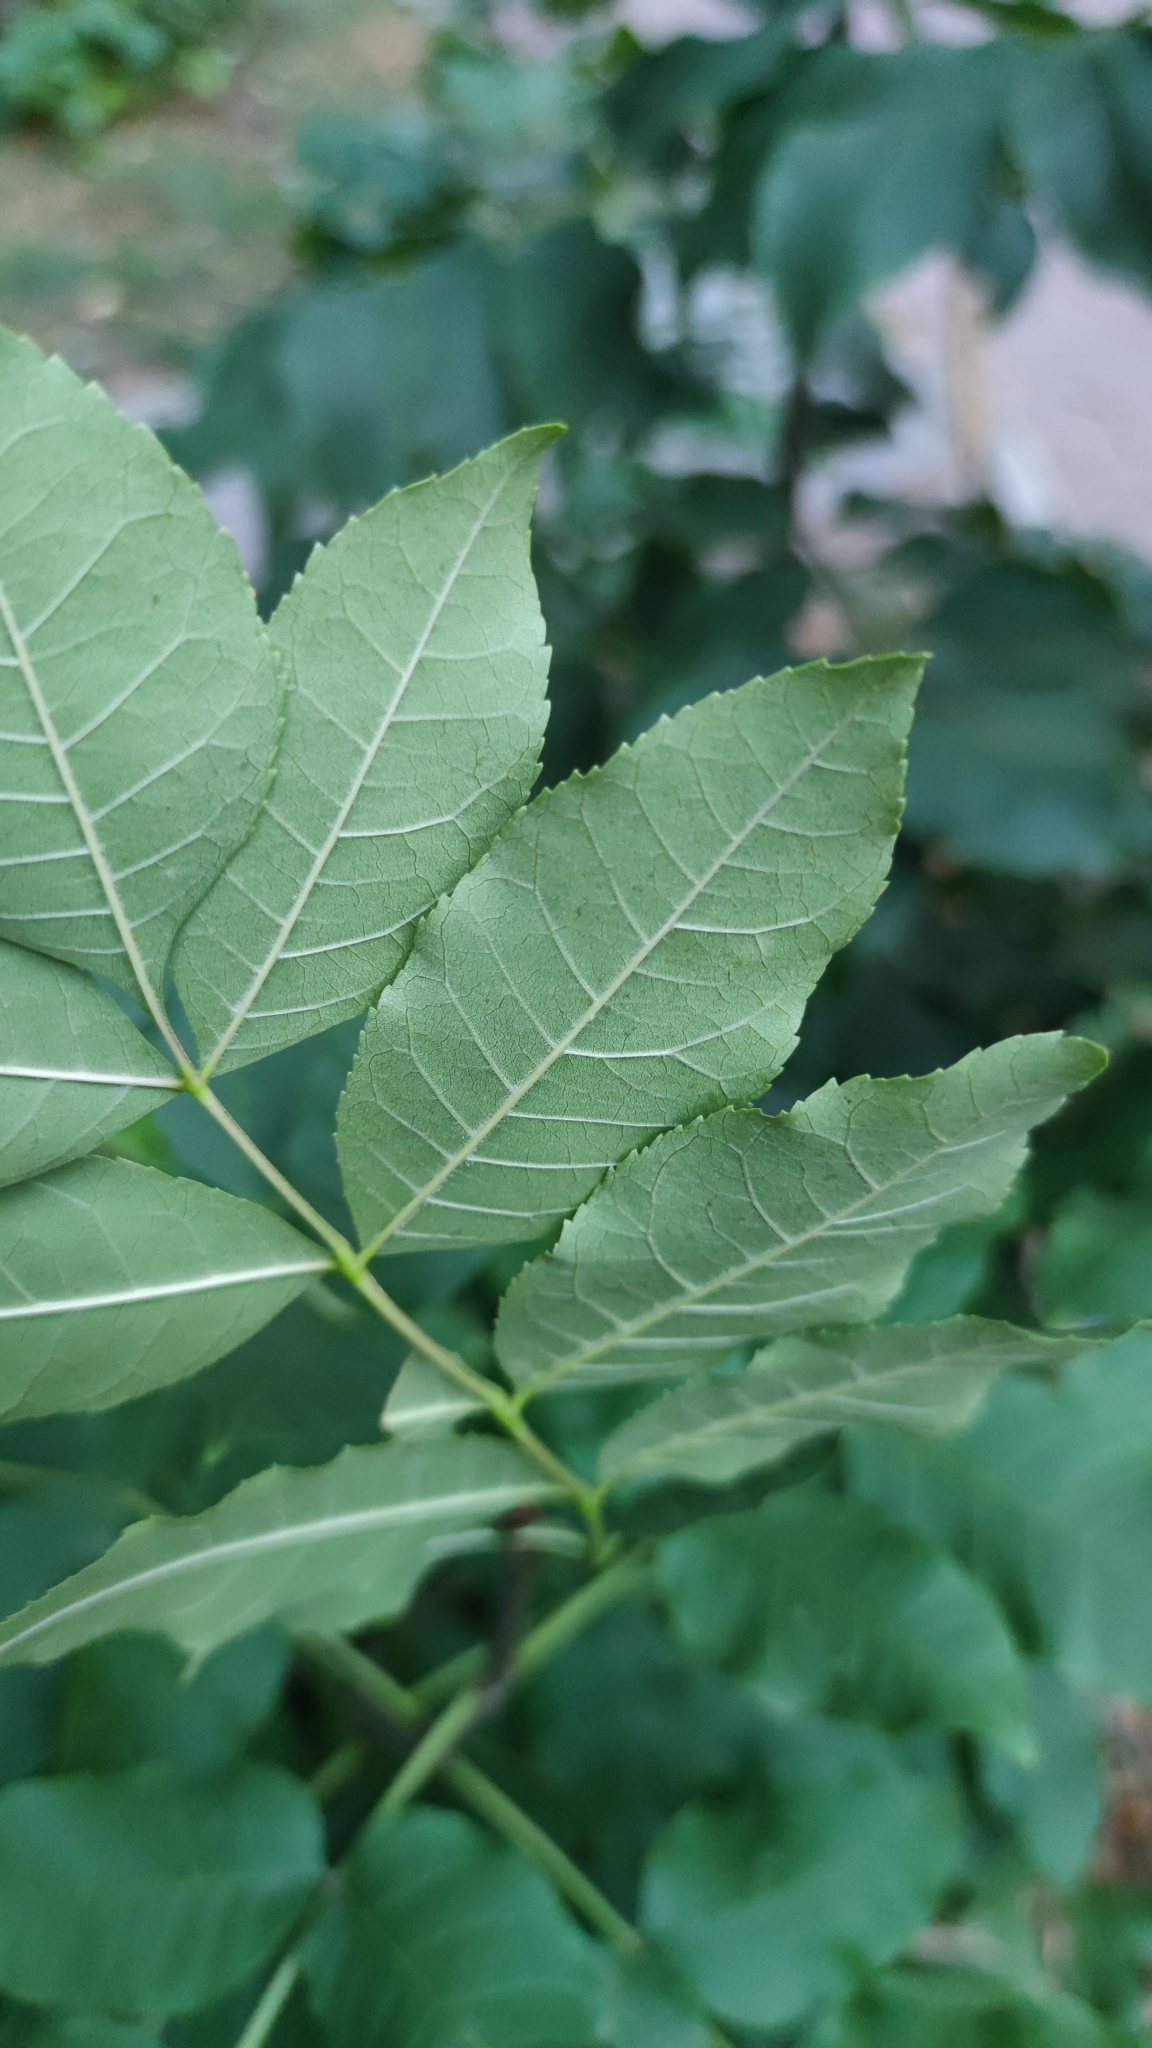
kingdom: Plantae
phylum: Tracheophyta
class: Magnoliopsida
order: Lamiales
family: Oleaceae
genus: Fraxinus
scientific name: Fraxinus pennsylvanica
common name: Green ash
